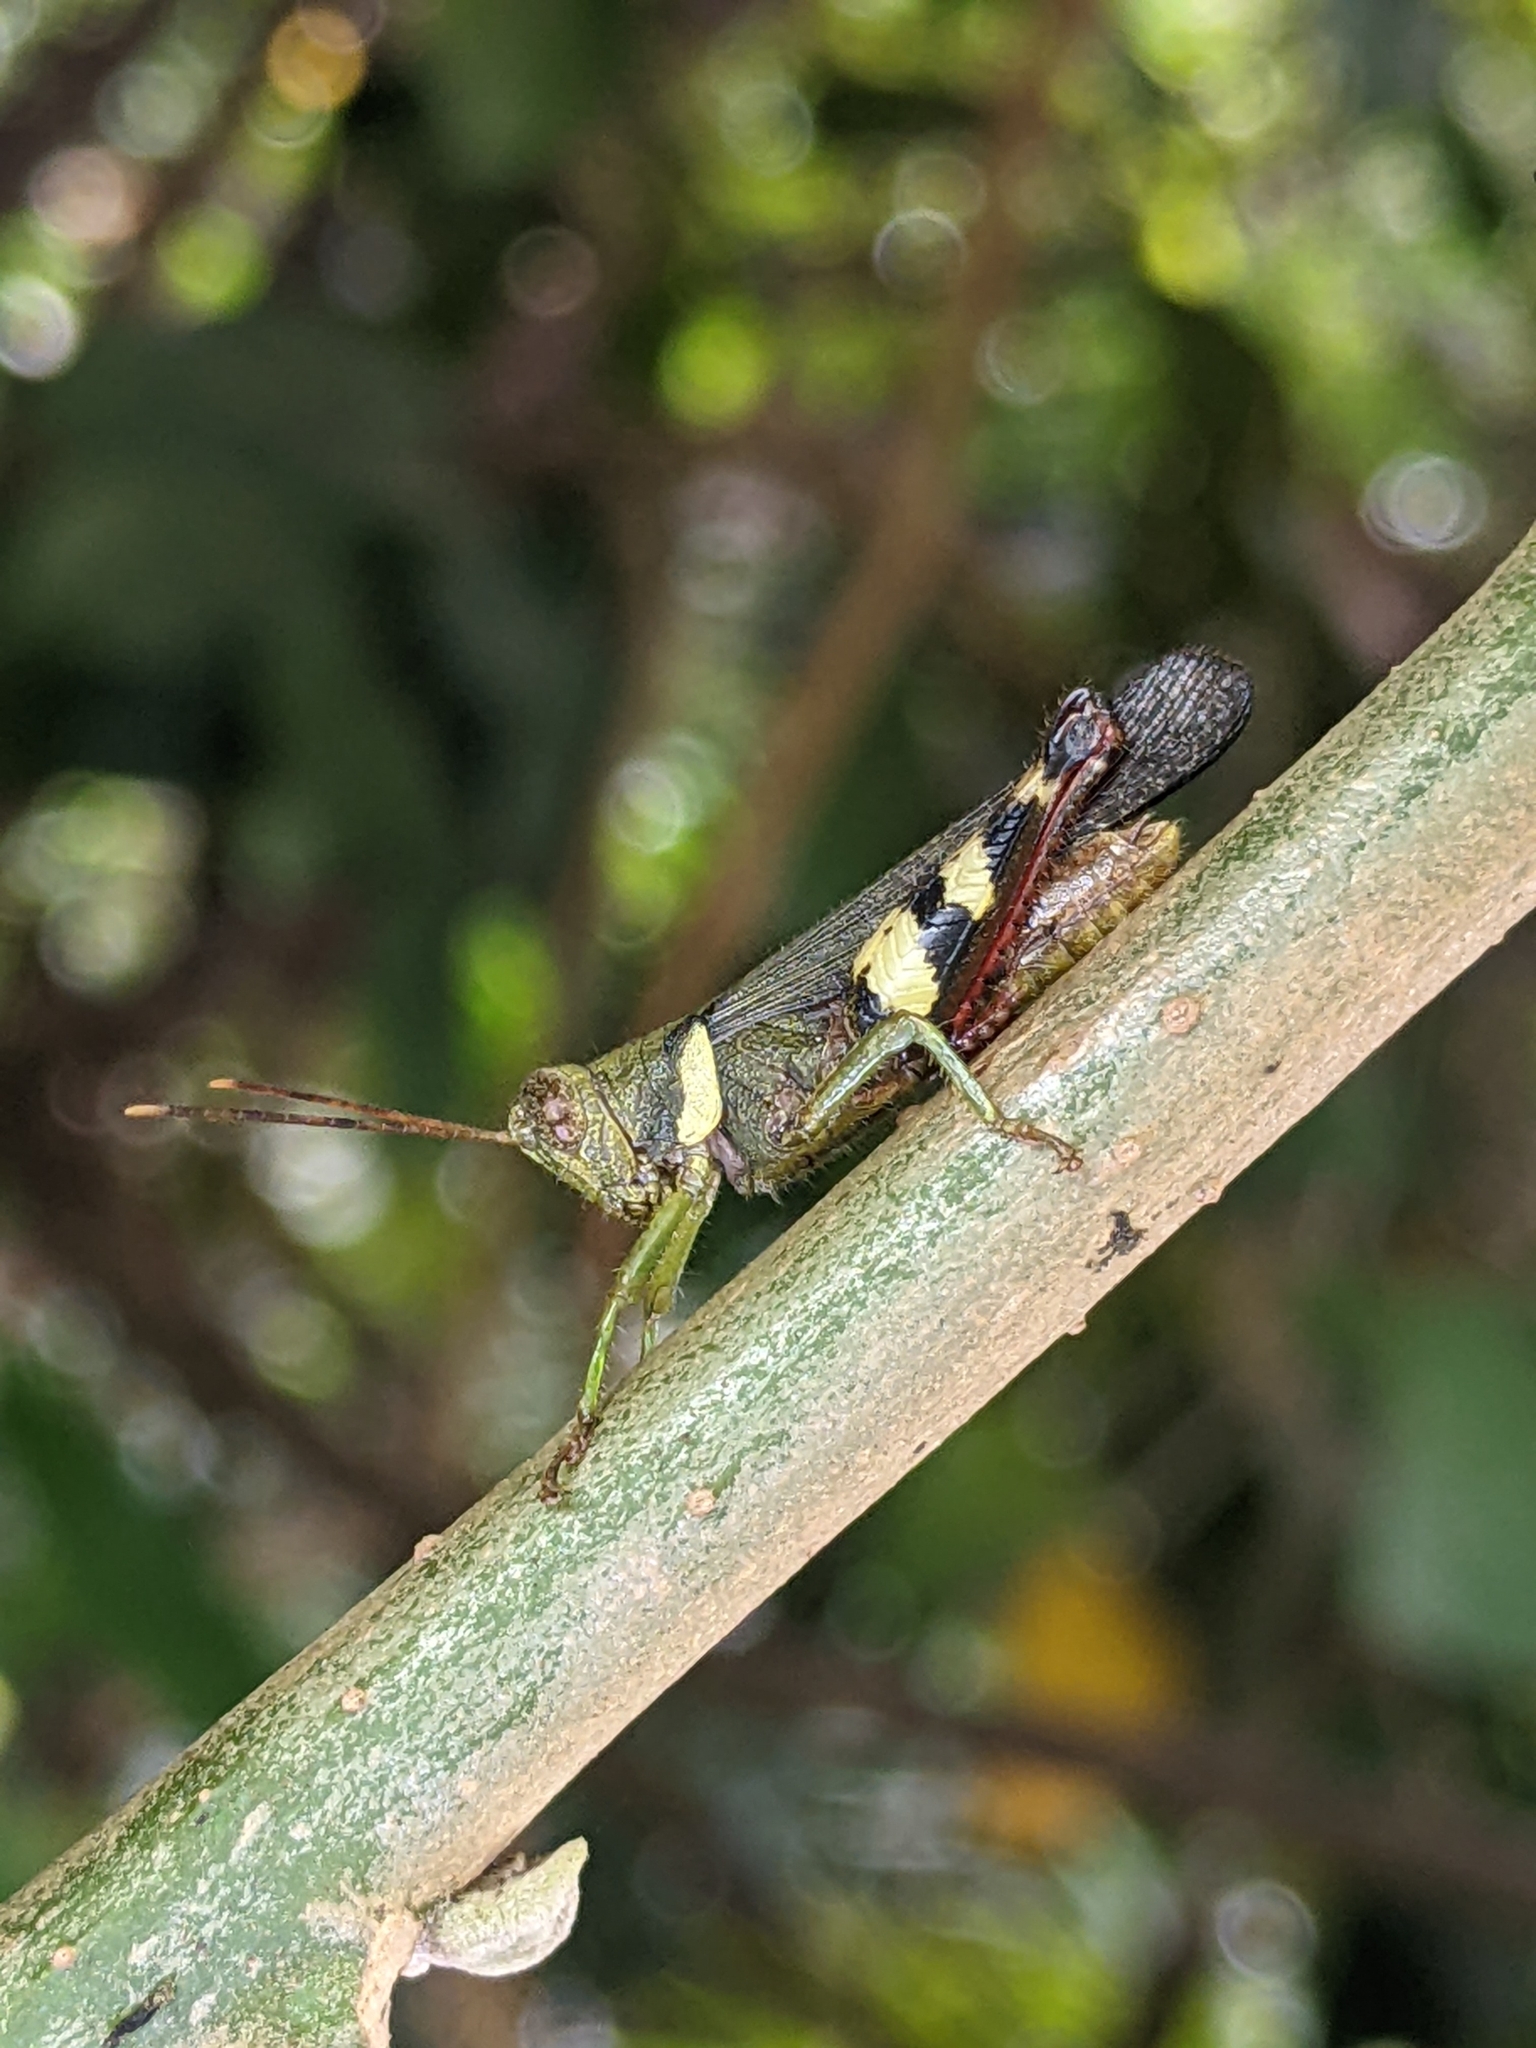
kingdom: Animalia
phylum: Arthropoda
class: Insecta
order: Orthoptera
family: Acrididae
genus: Apalacris
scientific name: Apalacris varicornis
